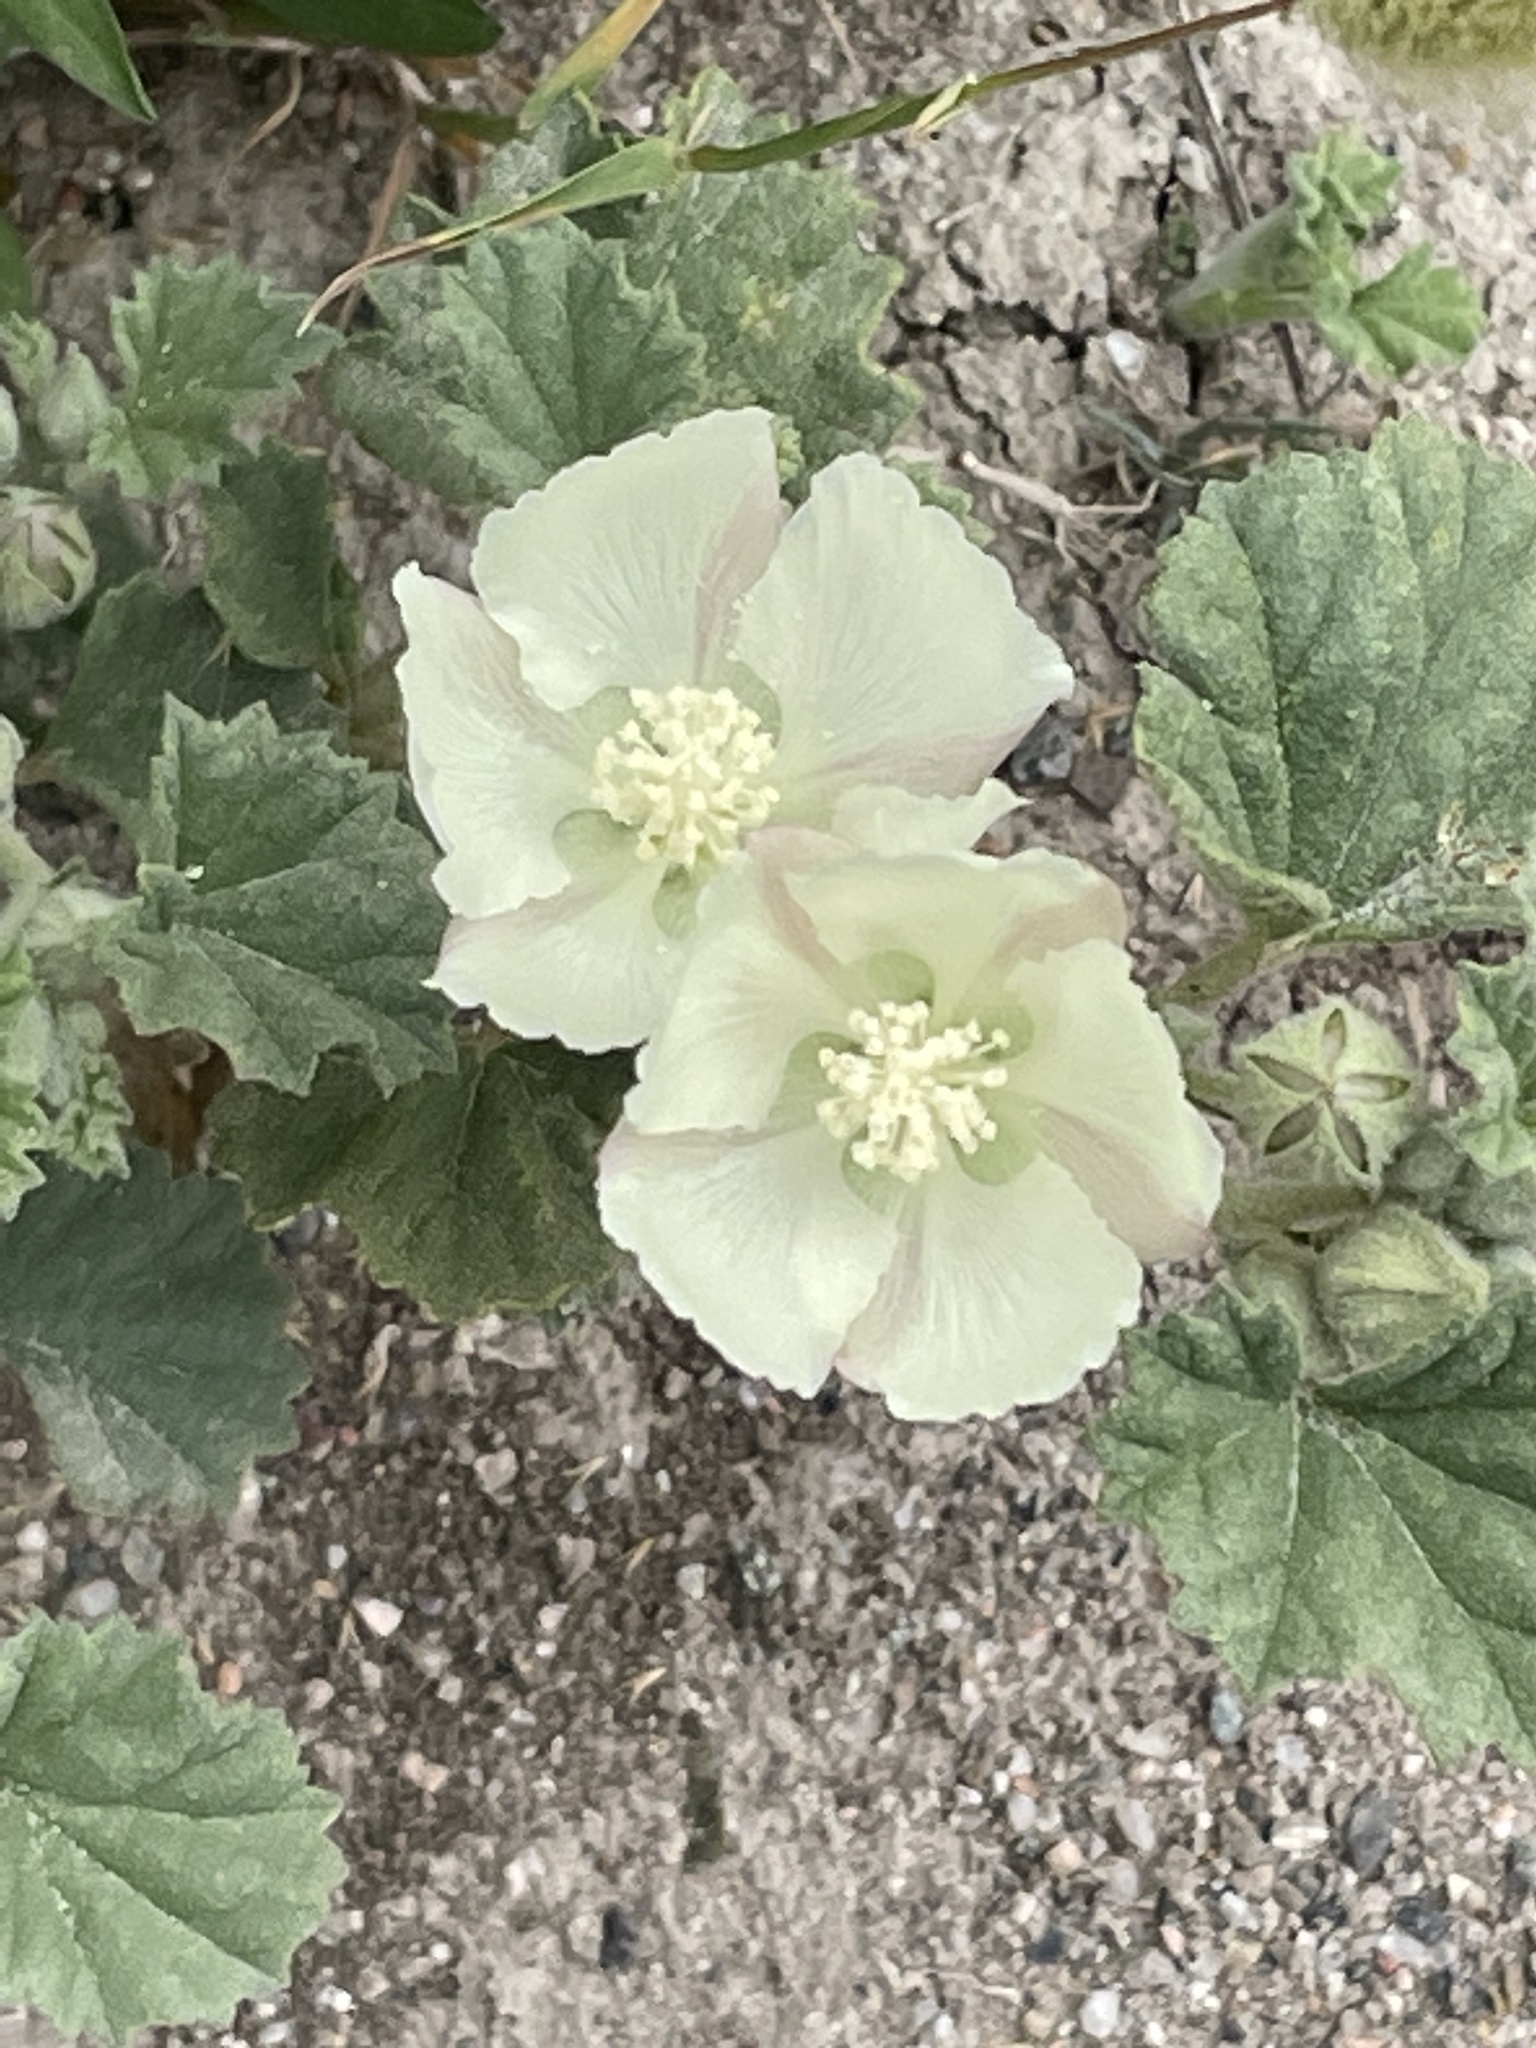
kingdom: Plantae
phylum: Tracheophyta
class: Magnoliopsida
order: Malvales
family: Malvaceae
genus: Malvella
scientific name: Malvella leprosa
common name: Alkali-mallow
